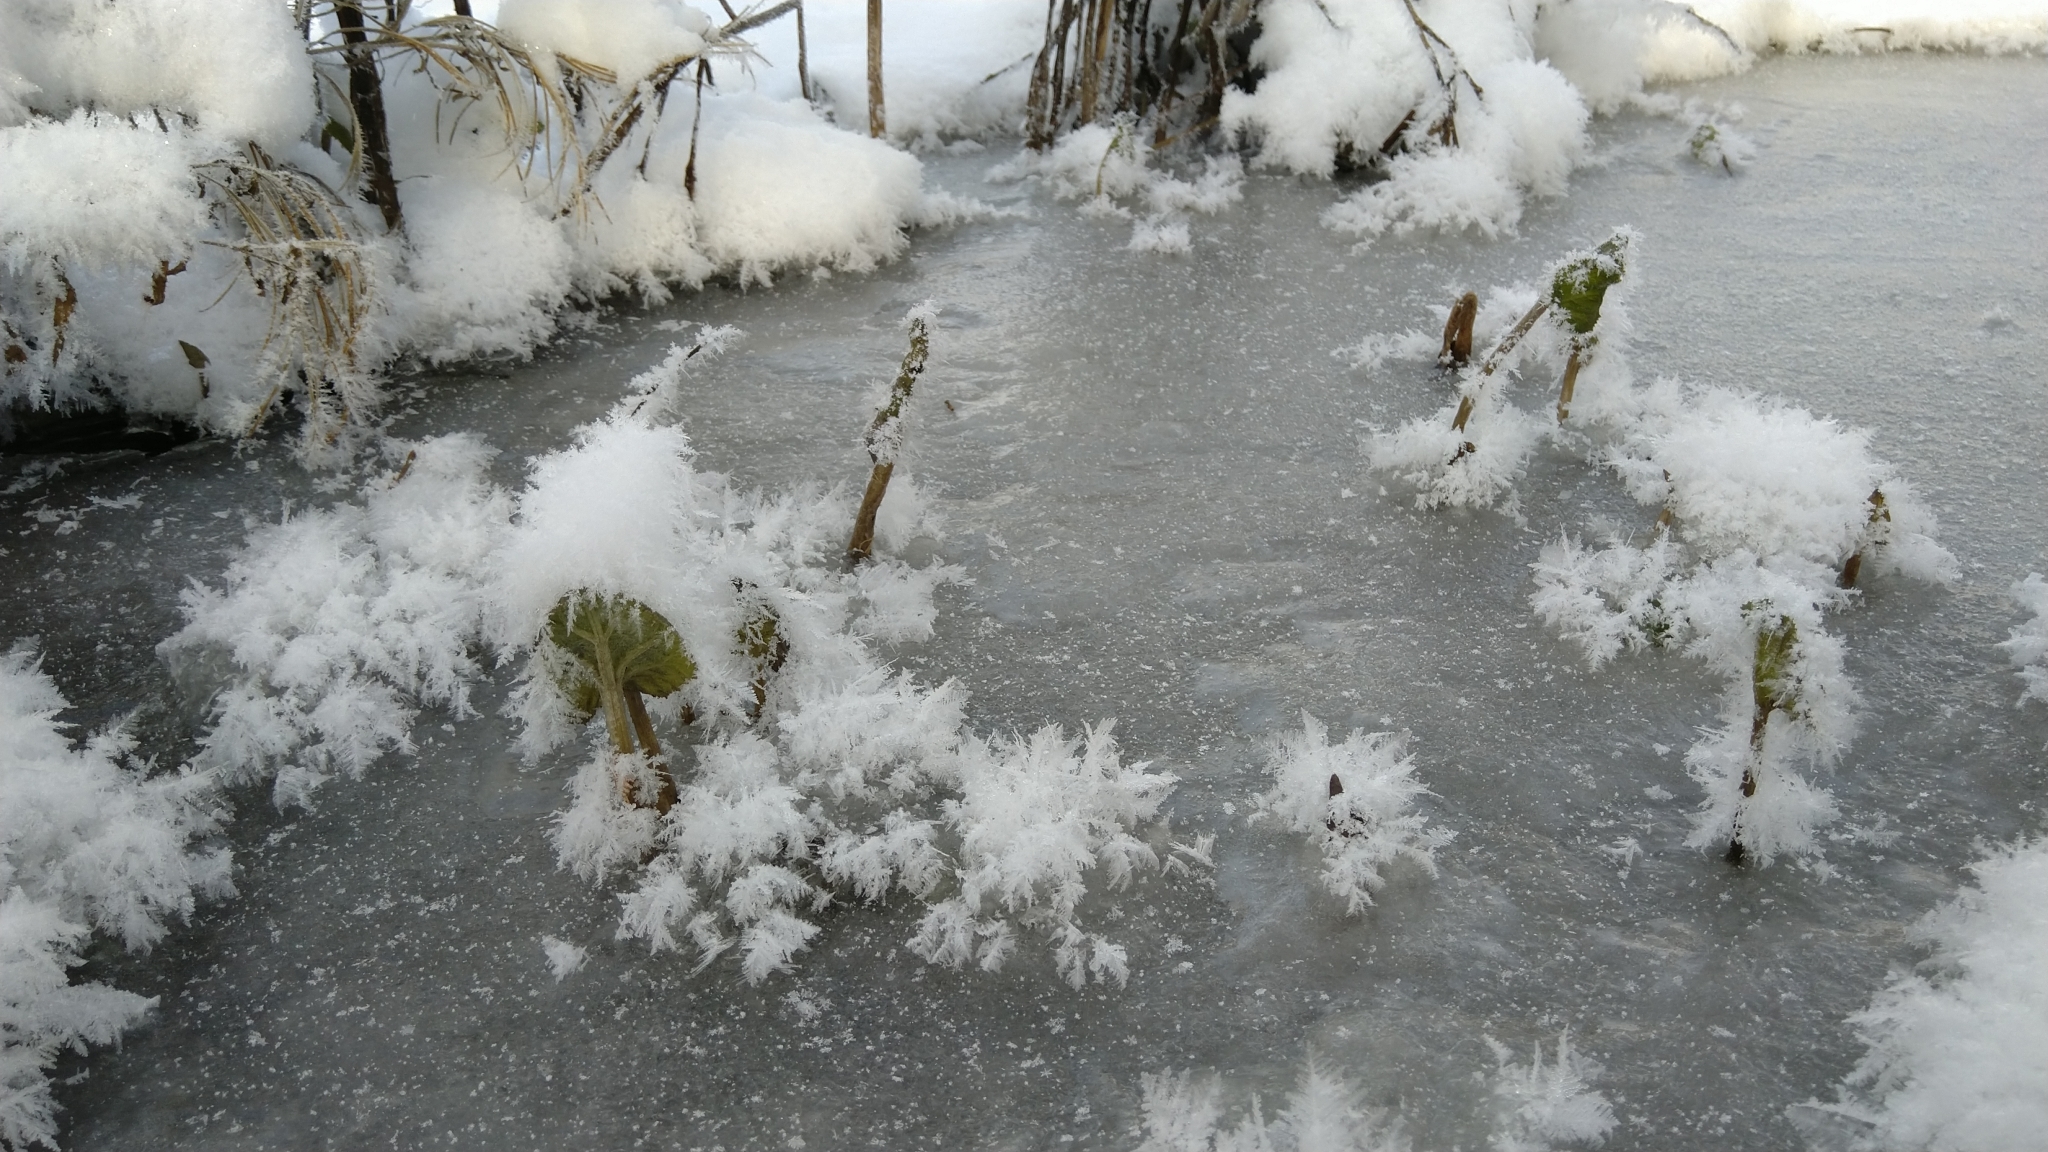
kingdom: Plantae
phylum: Tracheophyta
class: Magnoliopsida
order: Asterales
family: Asteraceae
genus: Petasites
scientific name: Petasites hybridus
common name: Butterbur
